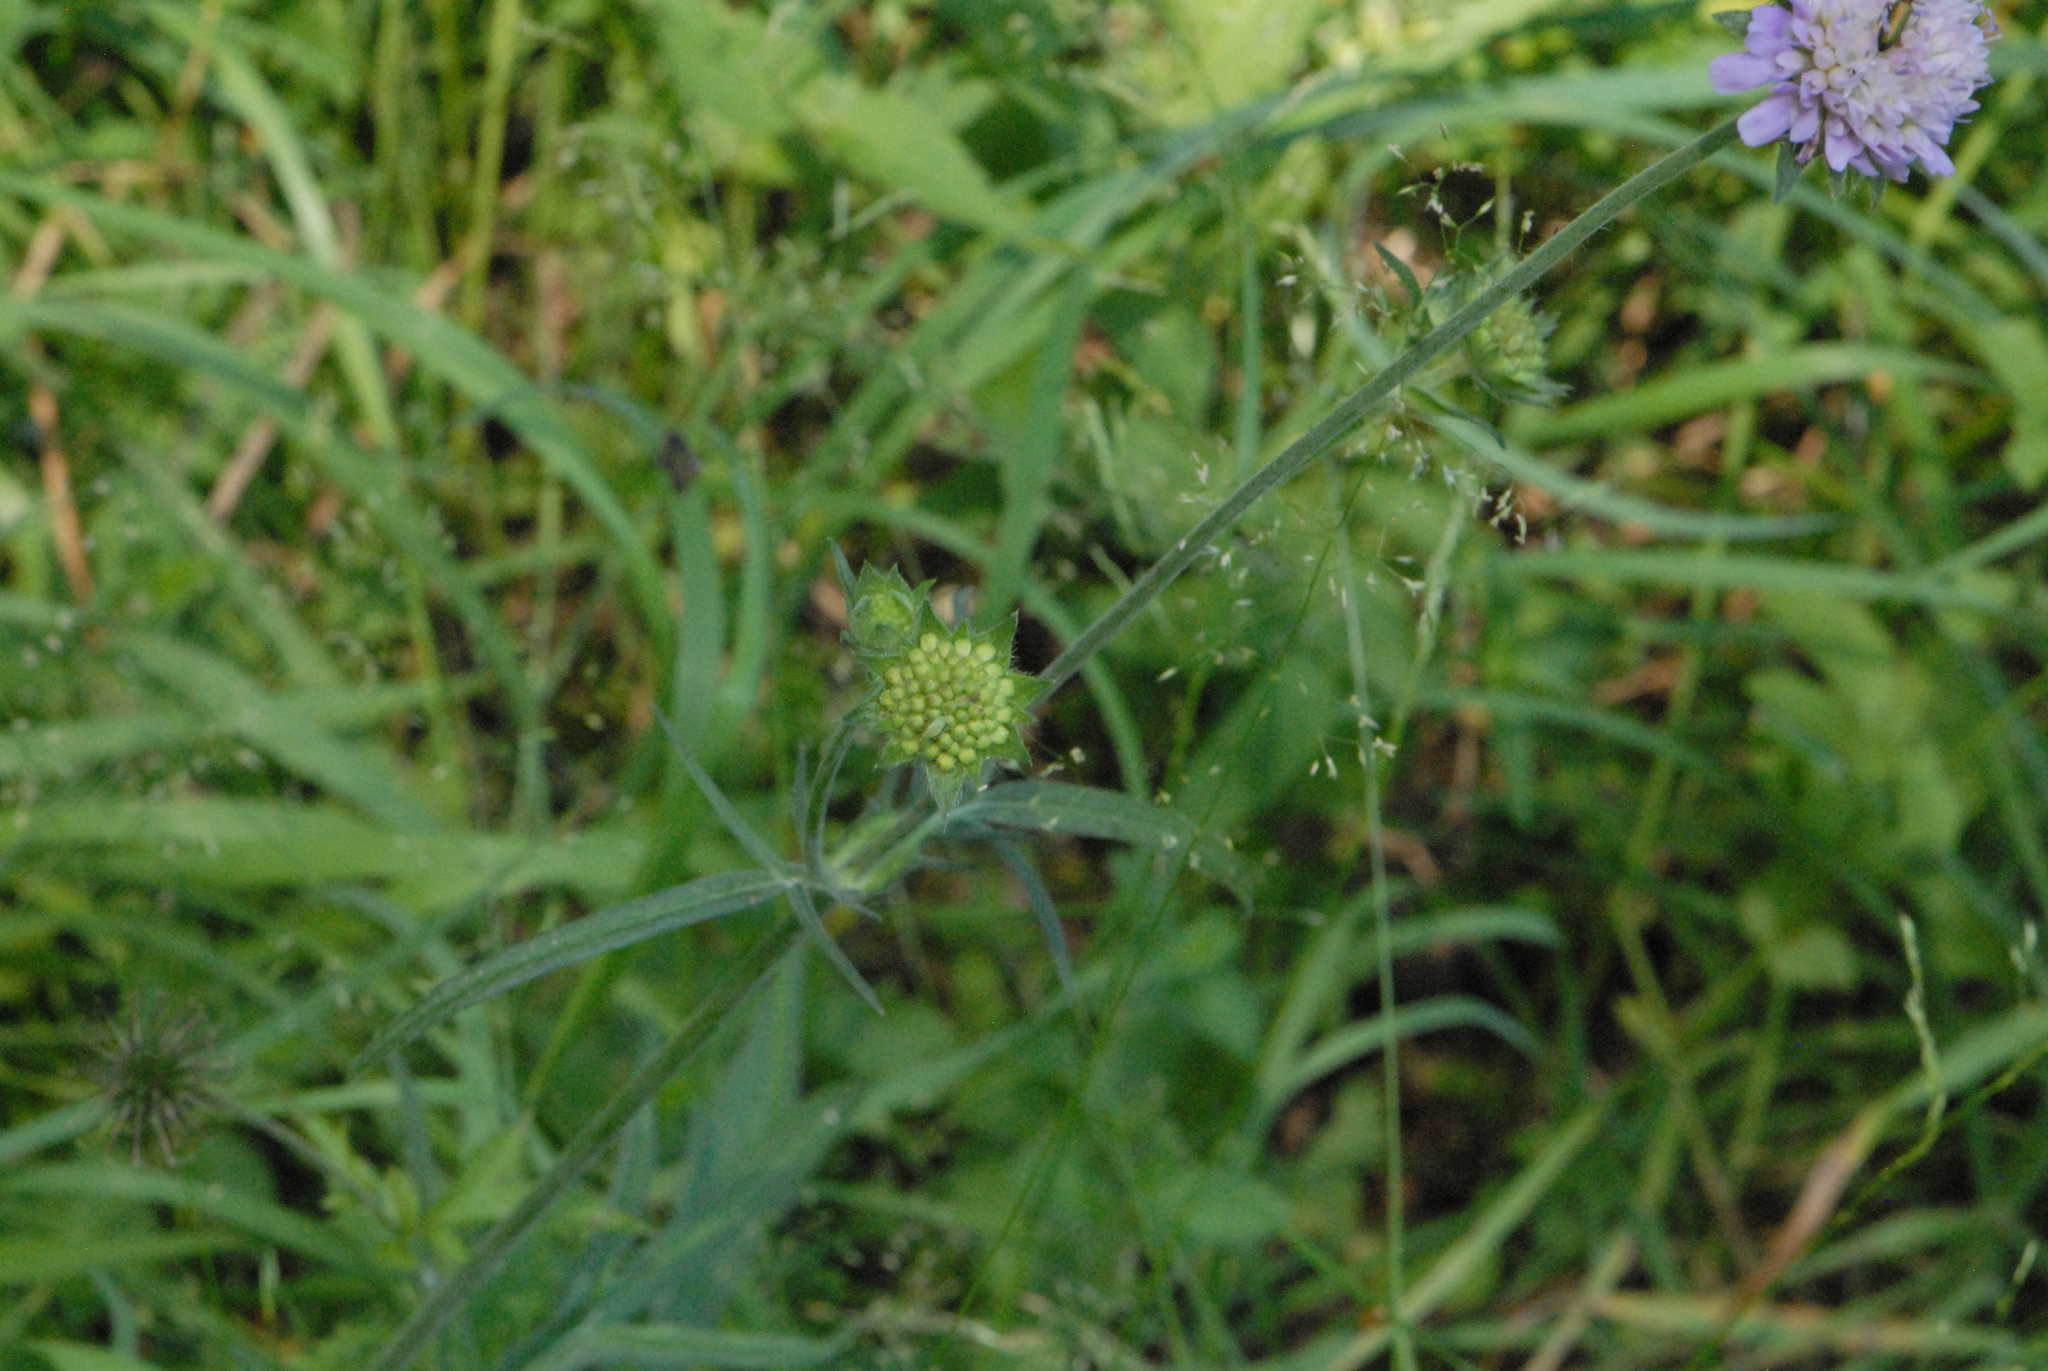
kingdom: Plantae
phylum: Tracheophyta
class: Magnoliopsida
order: Dipsacales
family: Caprifoliaceae
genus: Knautia
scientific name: Knautia arvensis
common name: Field scabiosa
